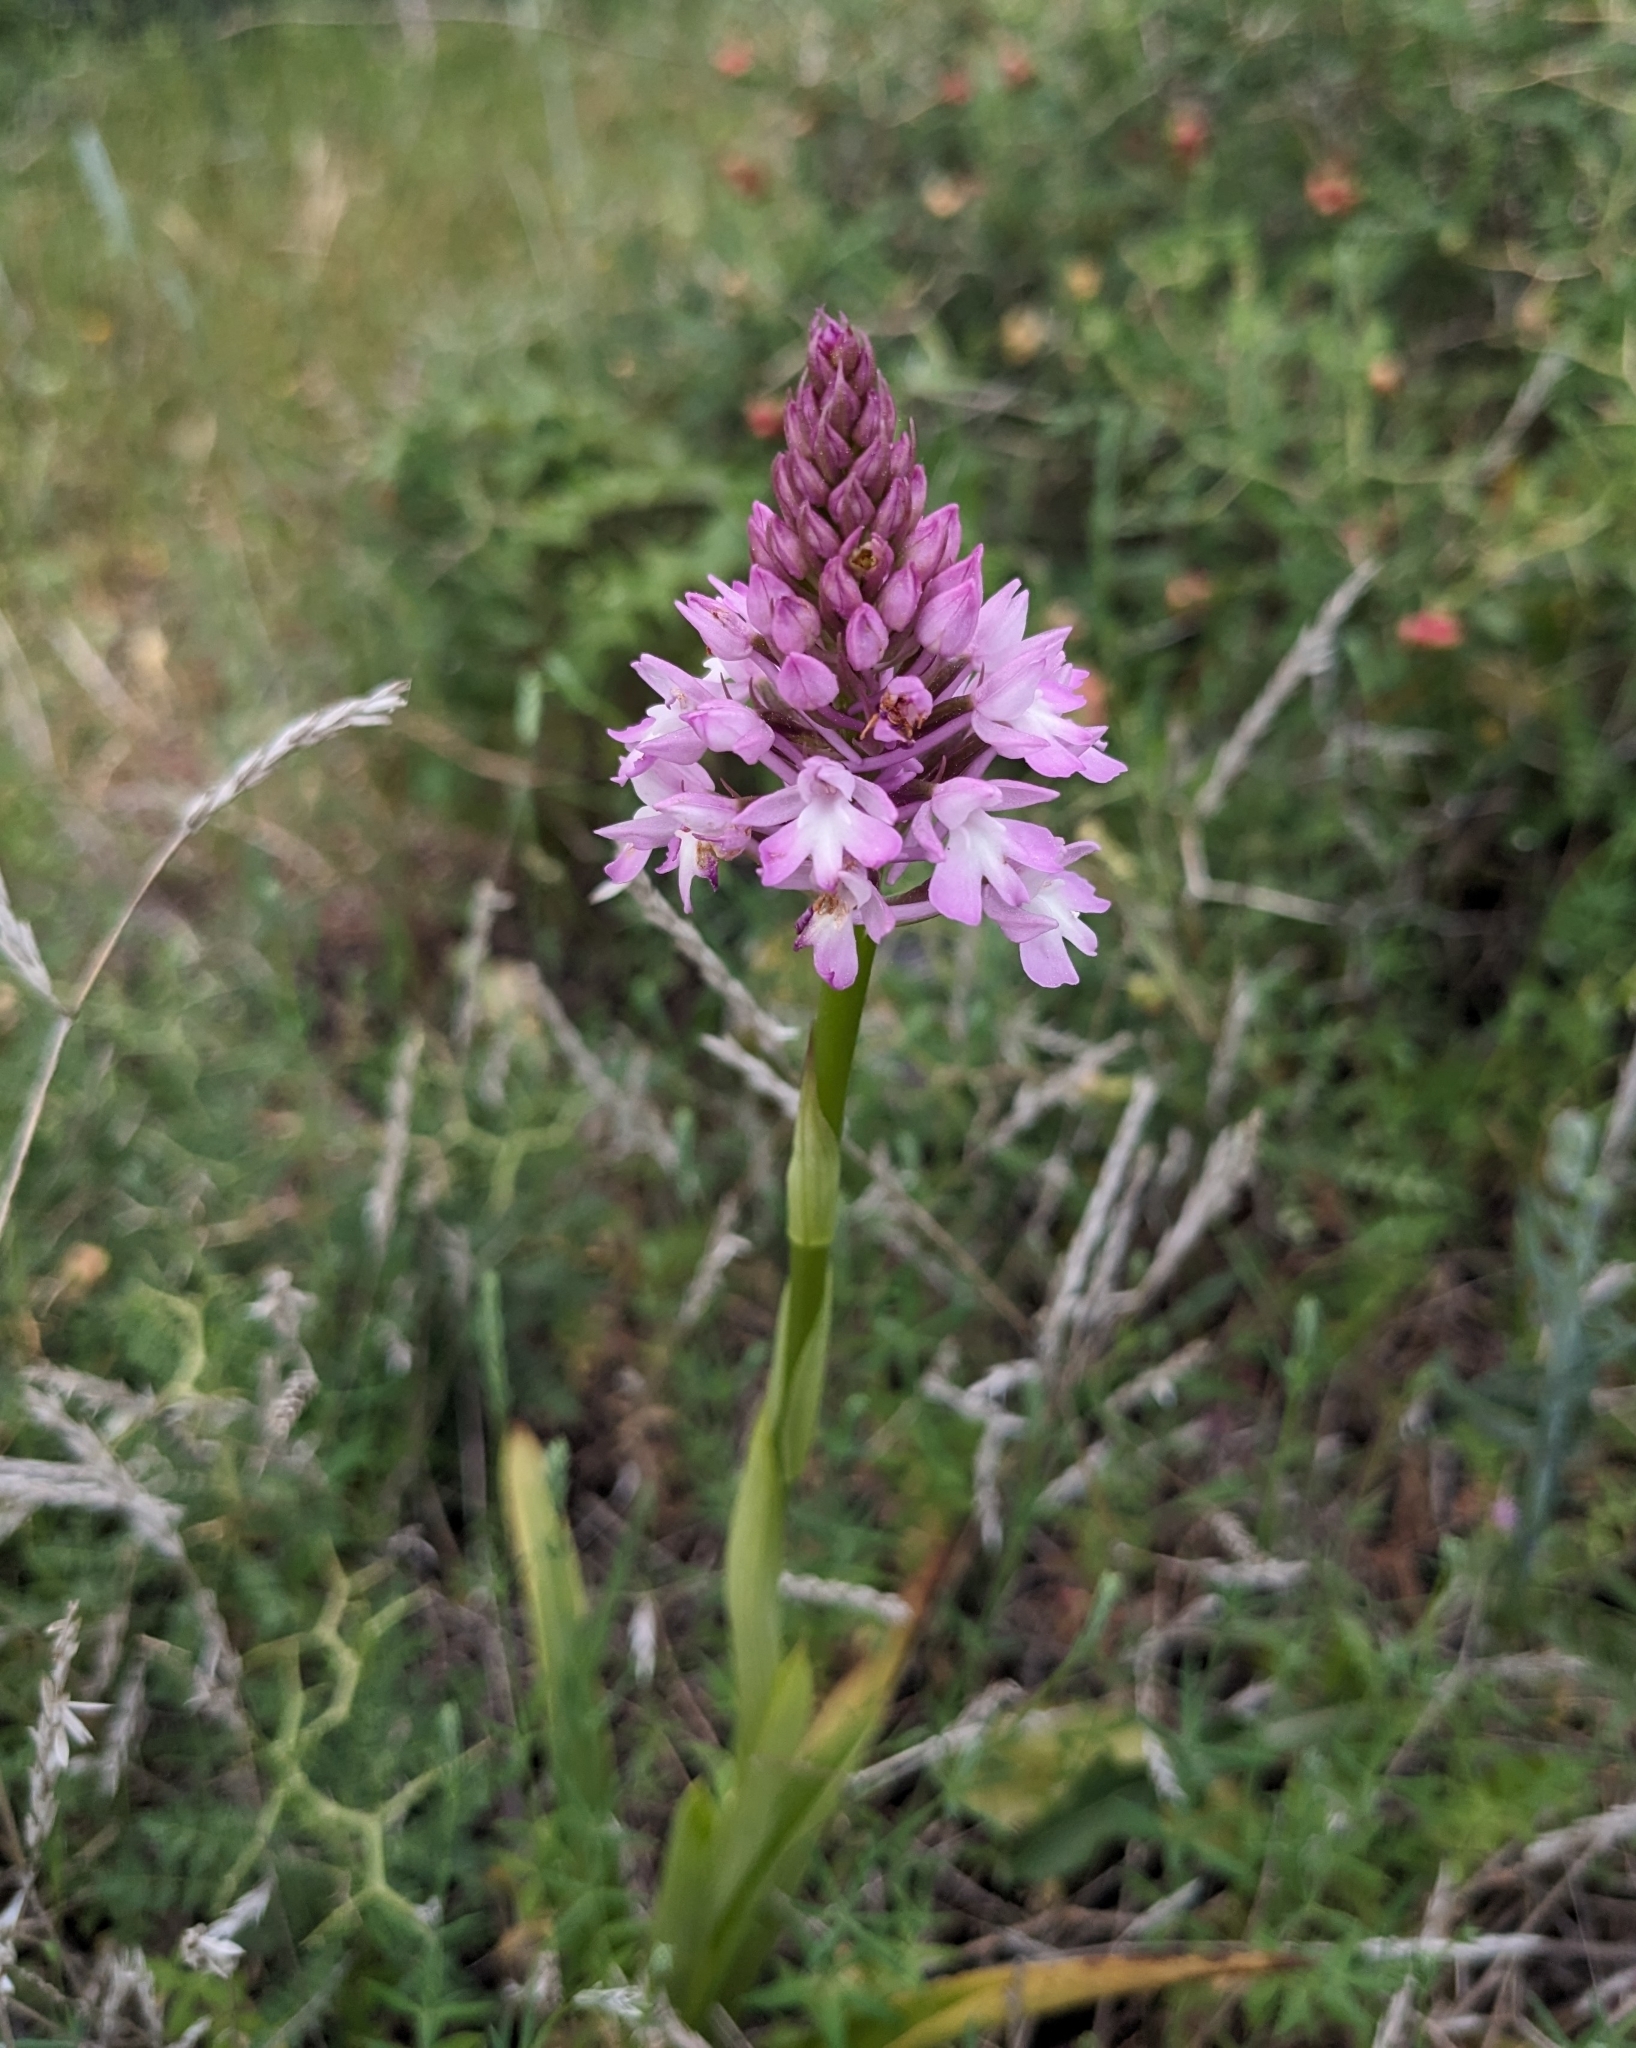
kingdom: Plantae
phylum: Tracheophyta
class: Liliopsida
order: Asparagales
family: Orchidaceae
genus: Anacamptis
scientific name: Anacamptis pyramidalis
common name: Pyramidal orchid
